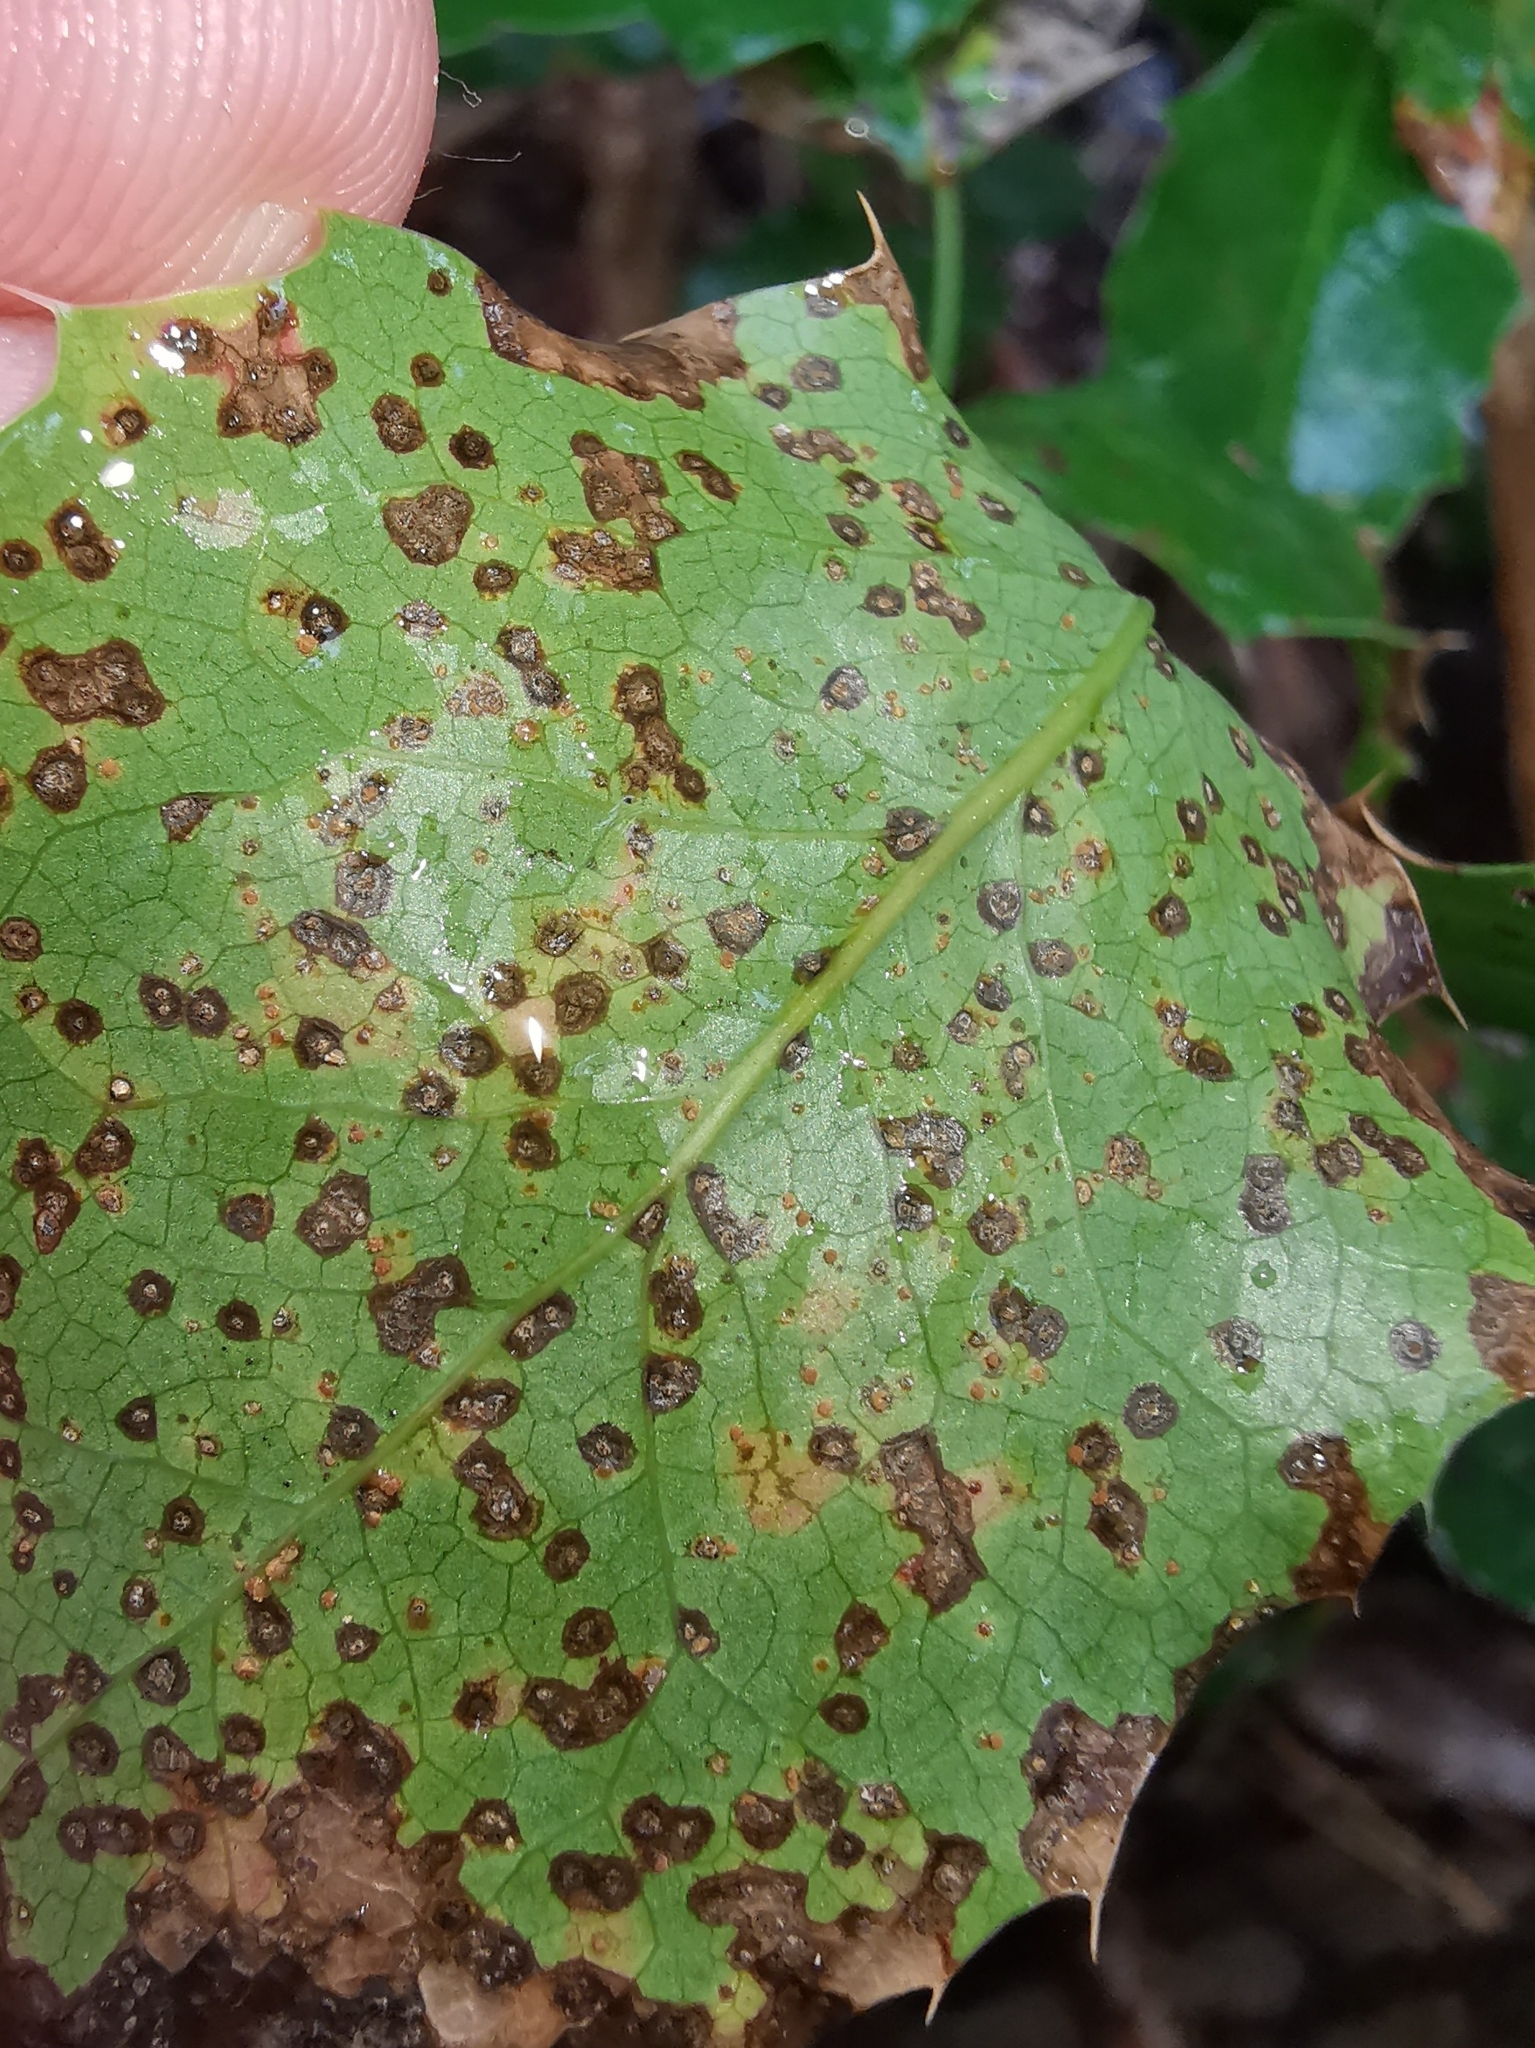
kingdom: Fungi
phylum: Basidiomycota
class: Pucciniomycetes
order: Pucciniales
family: Pucciniaceae
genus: Cumminsiella
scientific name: Cumminsiella mirabilissima
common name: Mahonia rust
